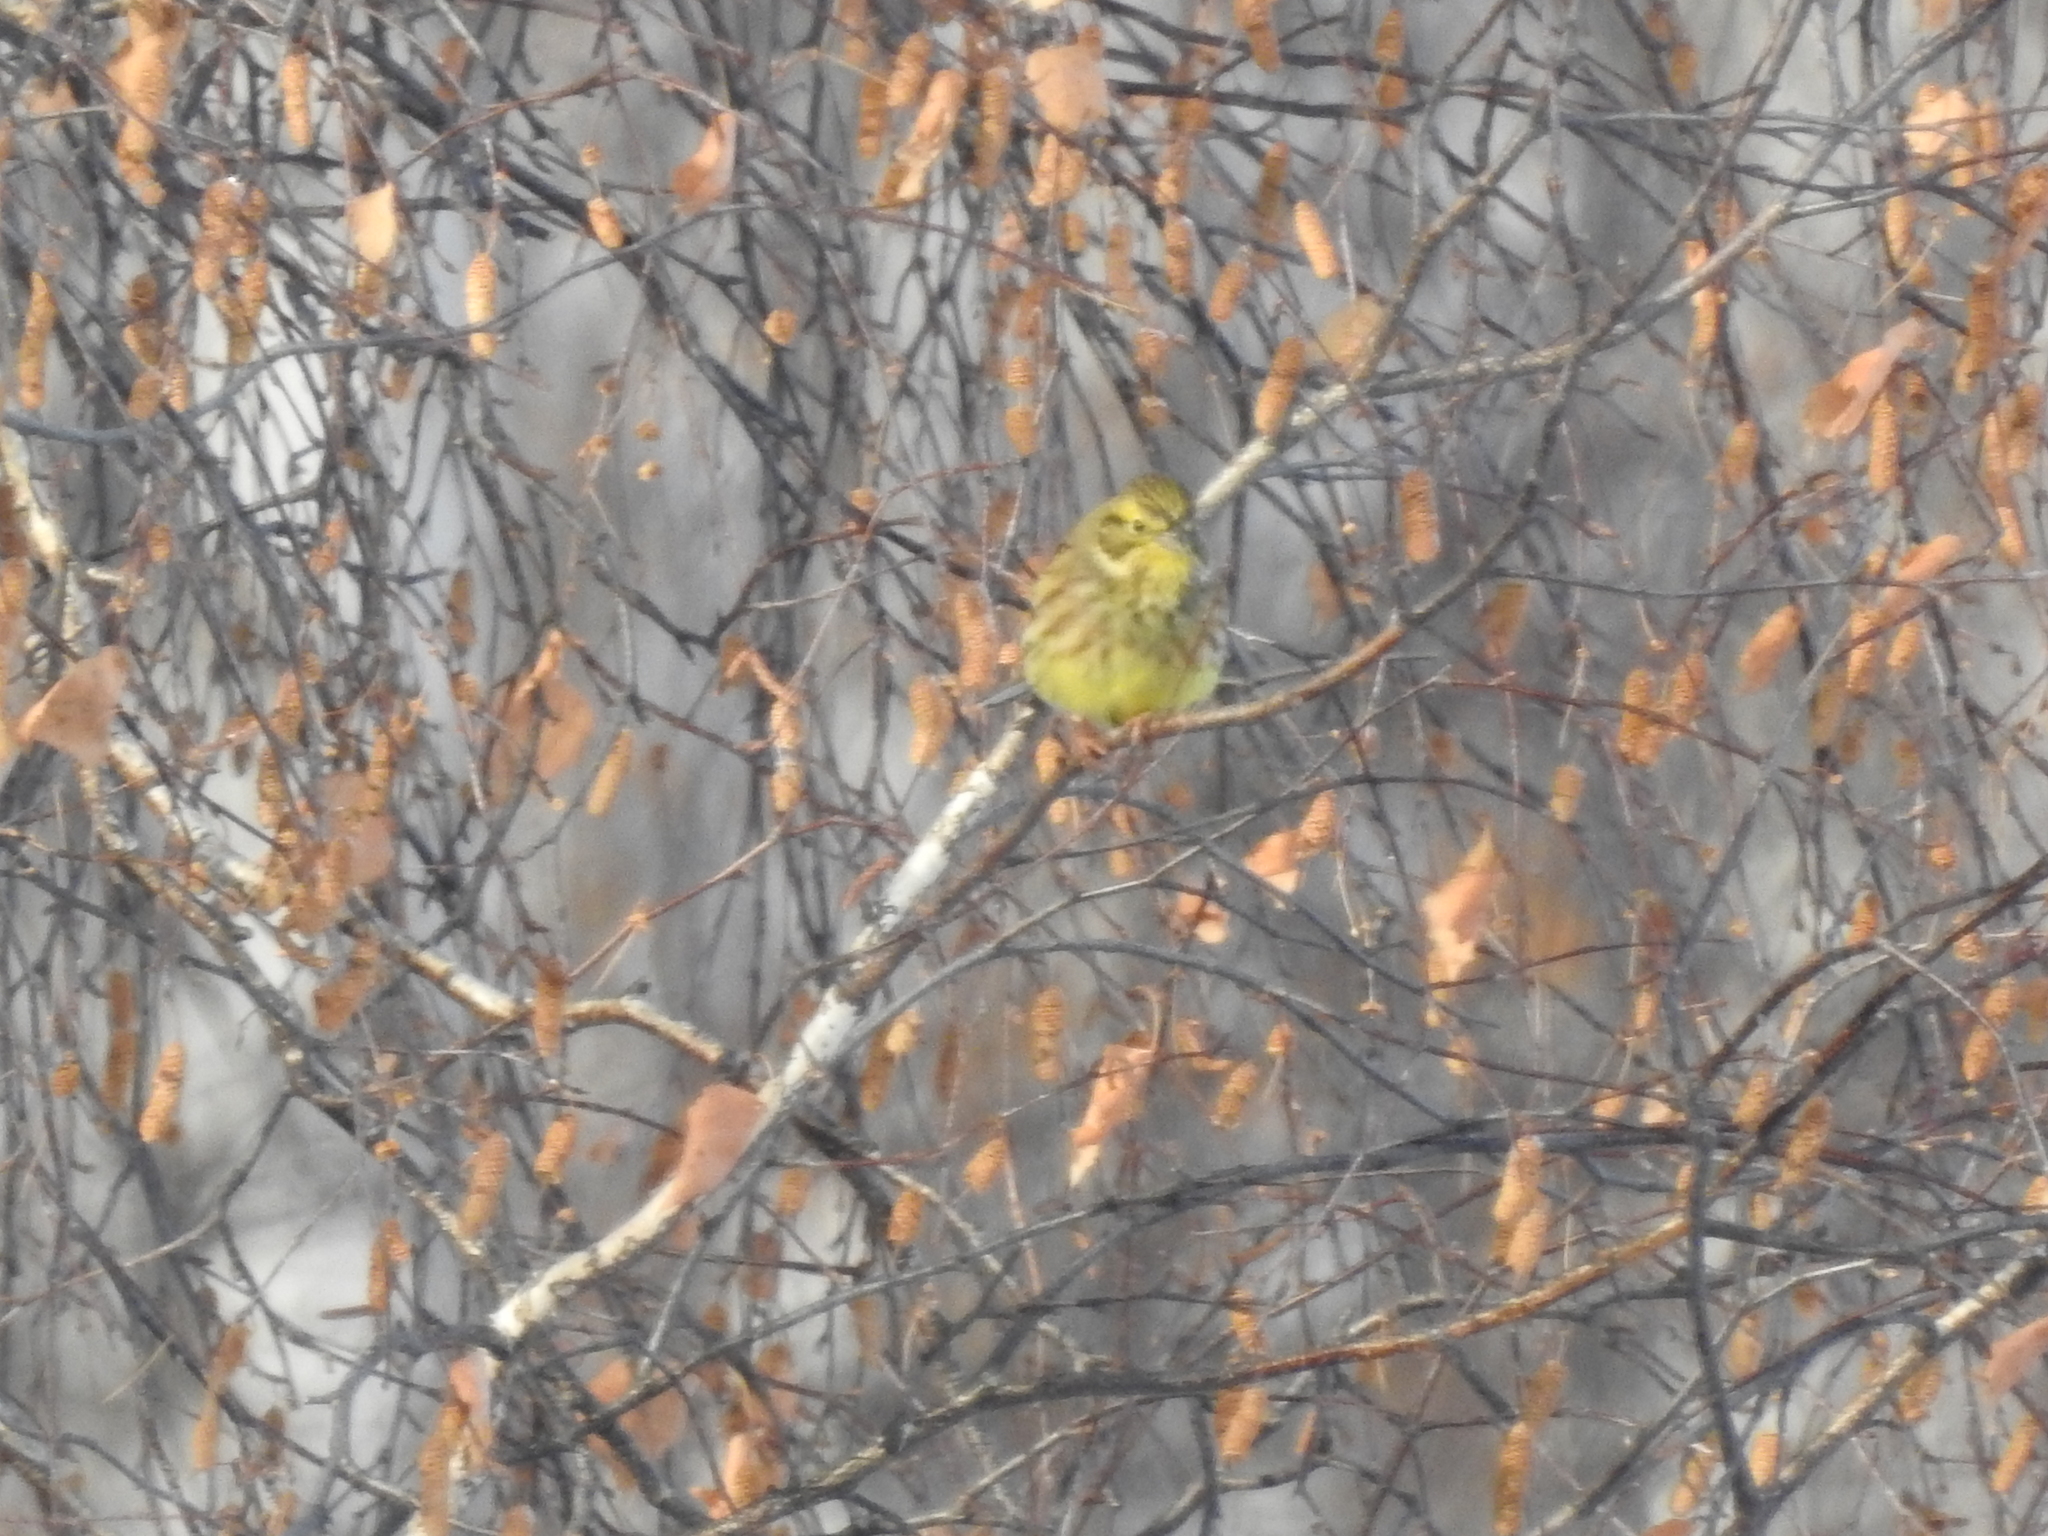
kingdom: Animalia
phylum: Chordata
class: Aves
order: Passeriformes
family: Emberizidae
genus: Emberiza
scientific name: Emberiza citrinella
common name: Yellowhammer
